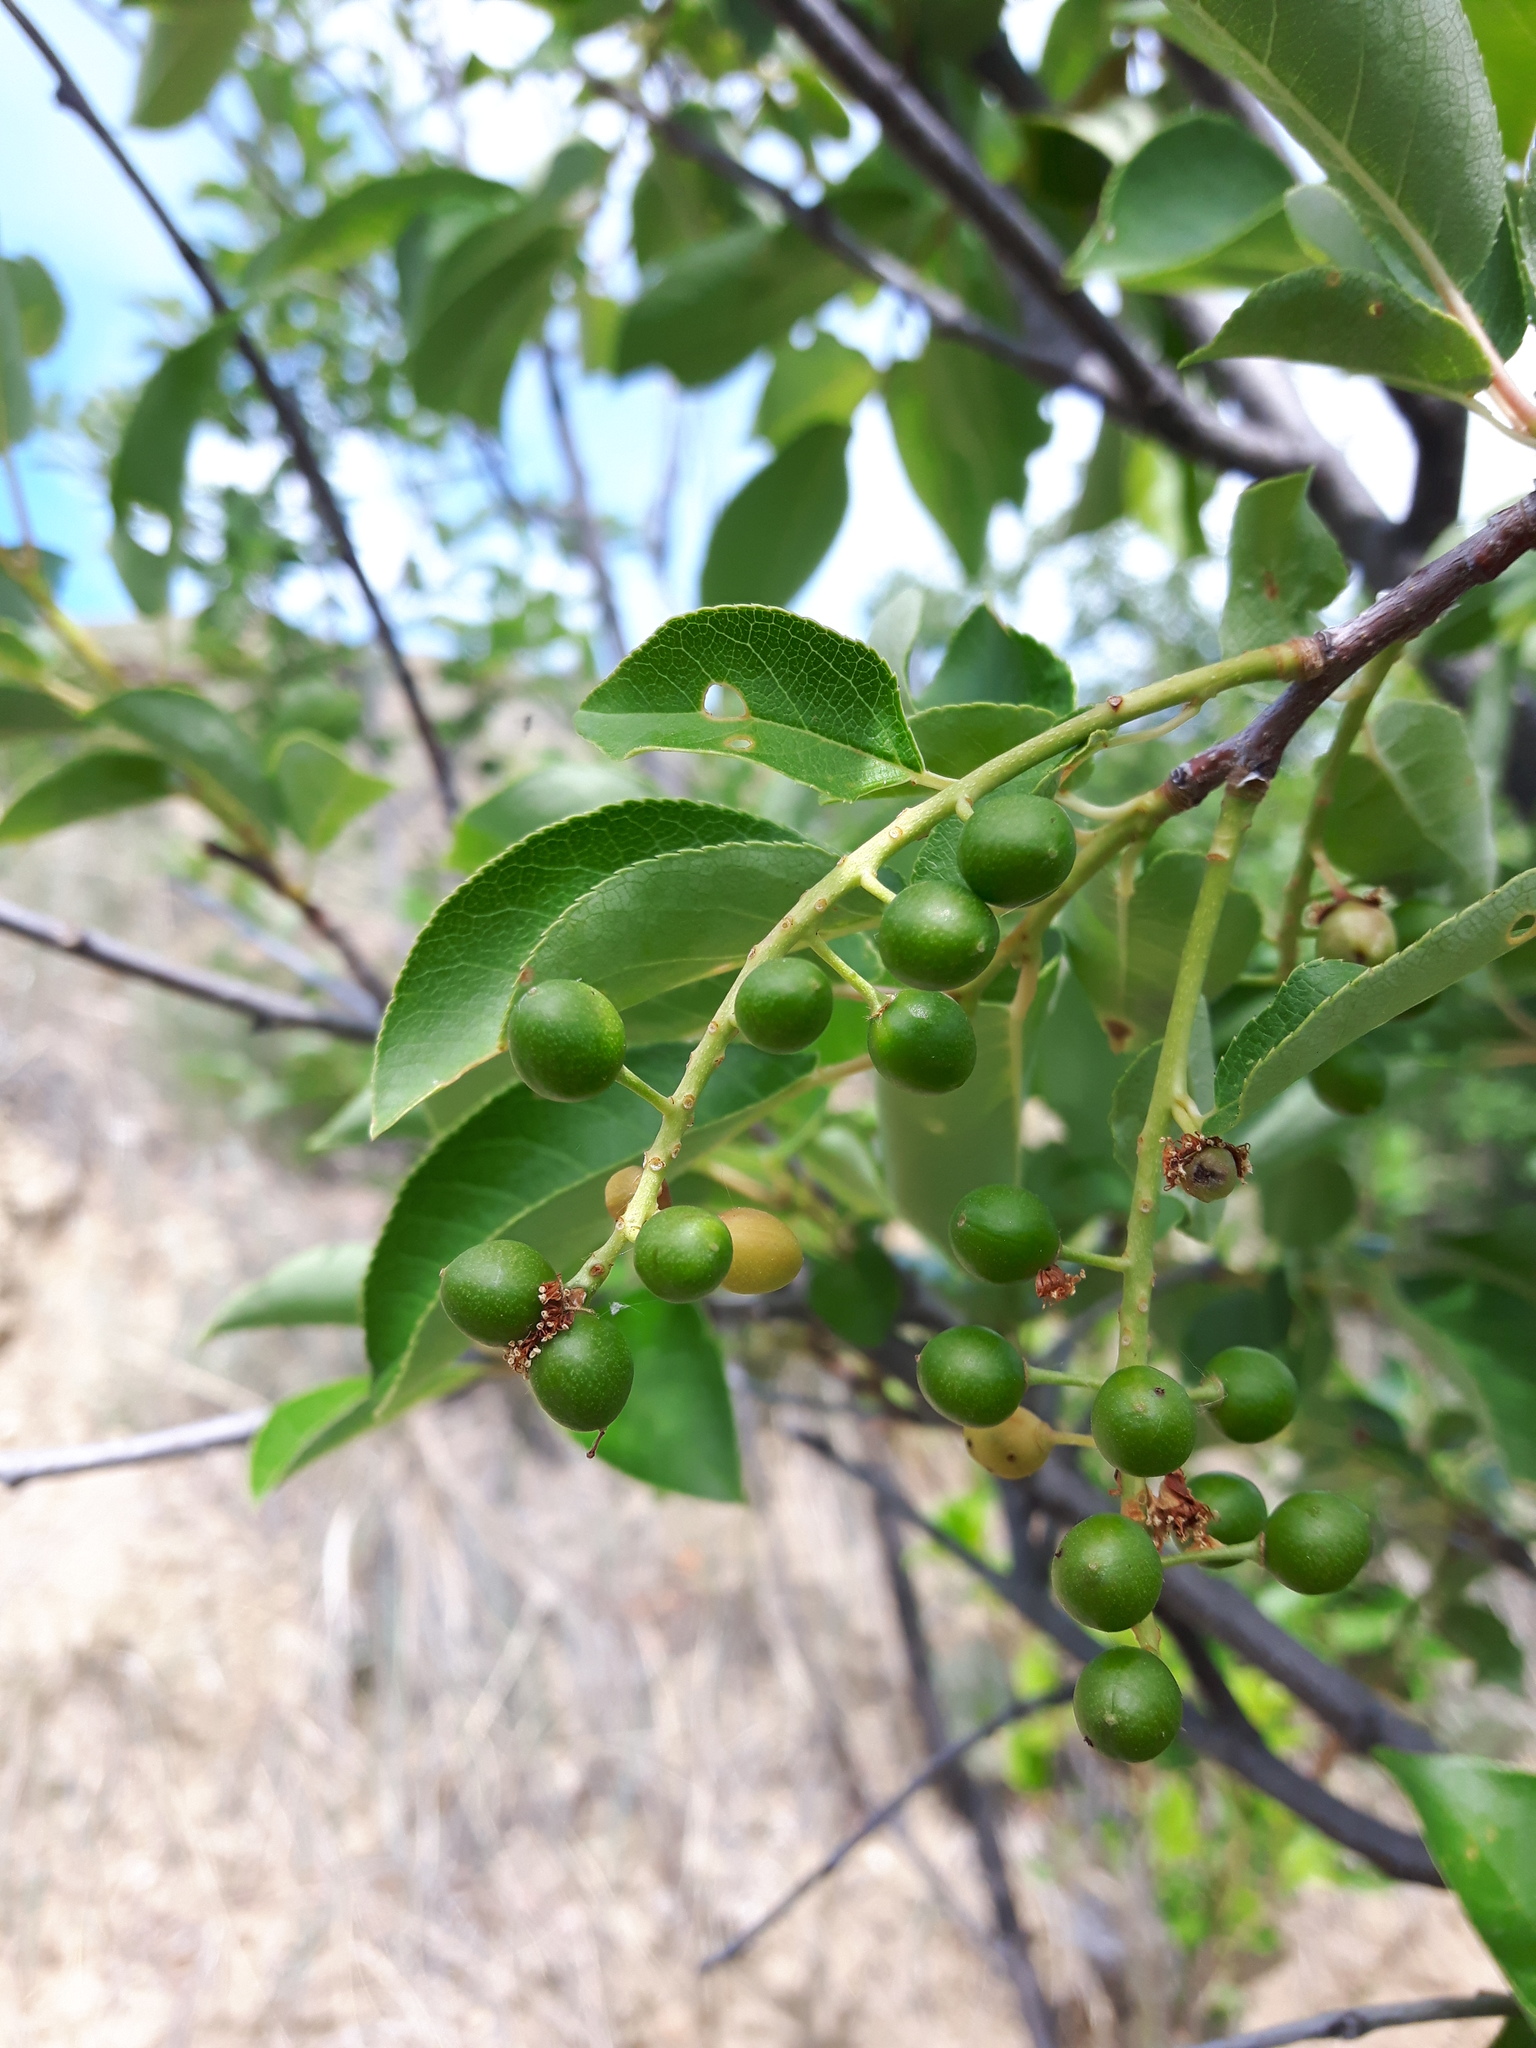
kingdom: Plantae
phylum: Tracheophyta
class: Magnoliopsida
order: Rosales
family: Rosaceae
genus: Prunus
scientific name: Prunus virginiana
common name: Chokecherry
